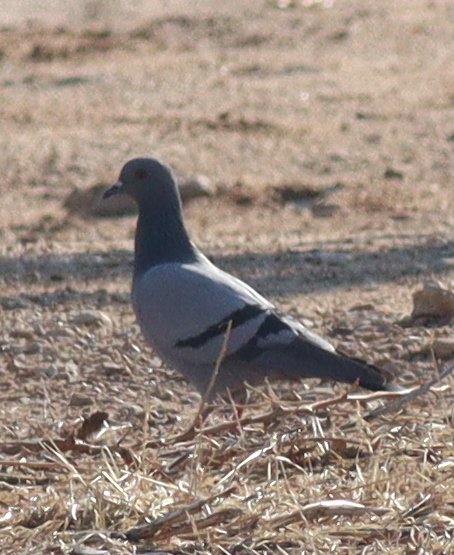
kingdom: Animalia
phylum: Chordata
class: Aves
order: Columbiformes
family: Columbidae
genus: Columba
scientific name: Columba livia
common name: Rock pigeon
